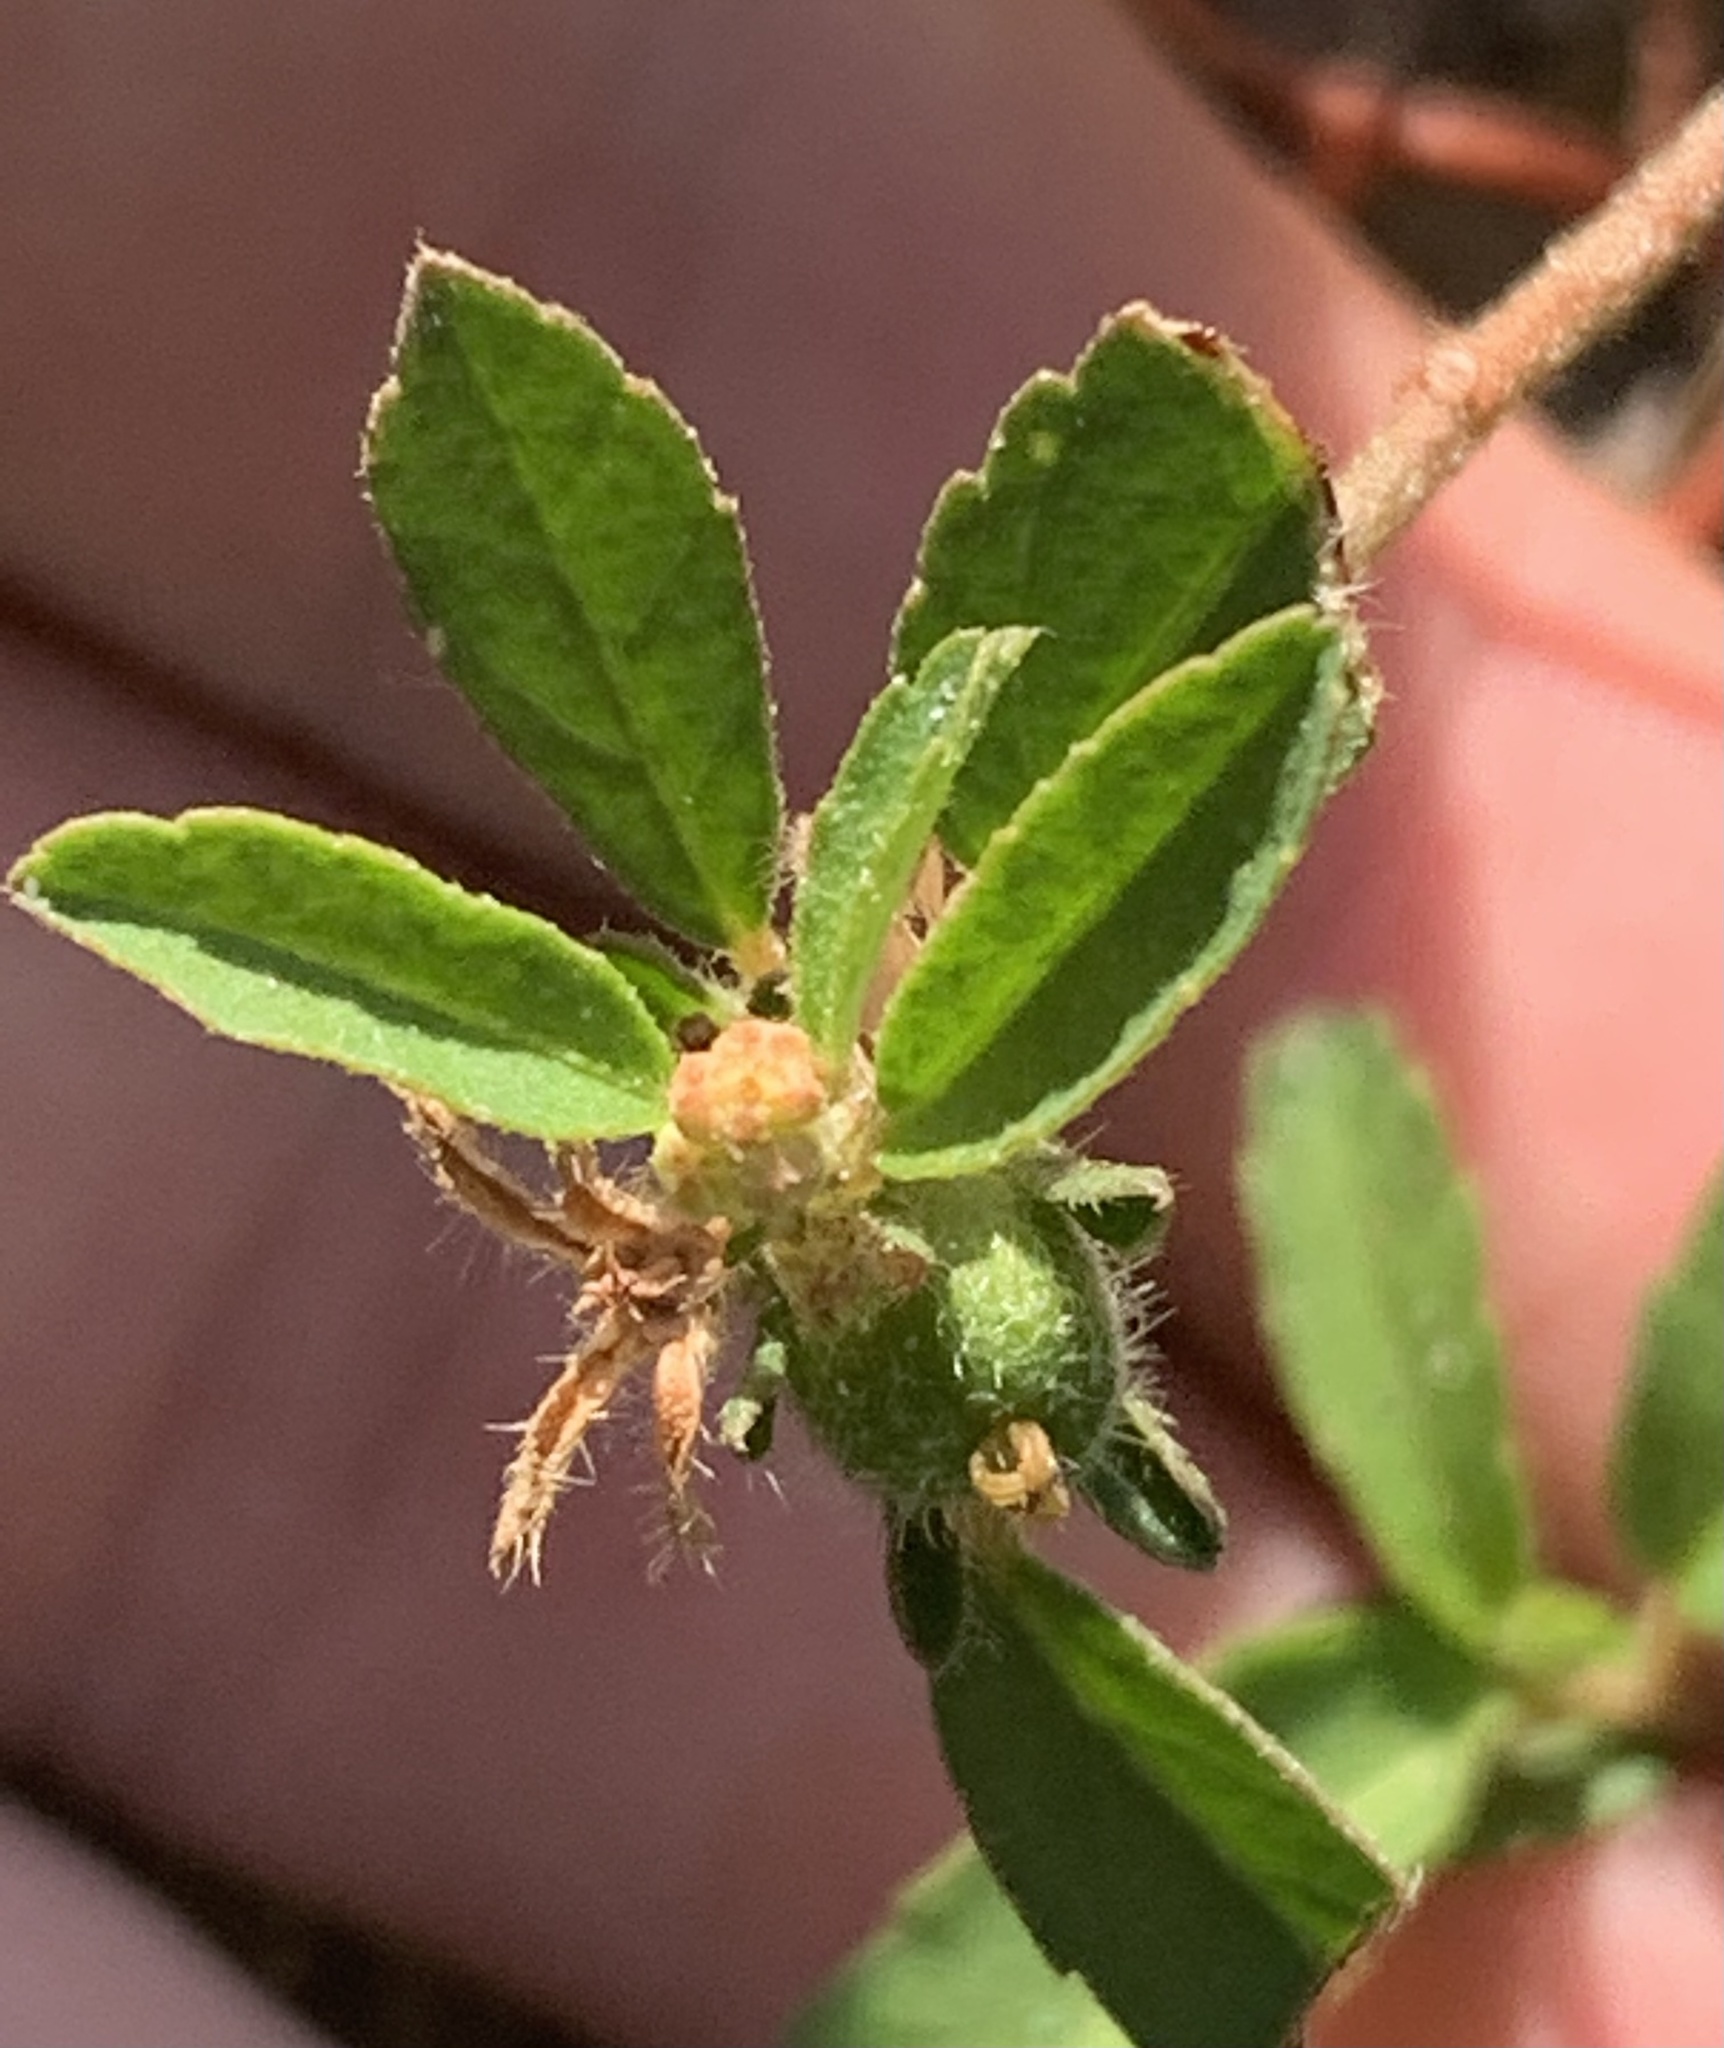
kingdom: Plantae
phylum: Tracheophyta
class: Magnoliopsida
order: Malpighiales
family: Euphorbiaceae
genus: Croton
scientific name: Croton glandulosus
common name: Tropic croton
